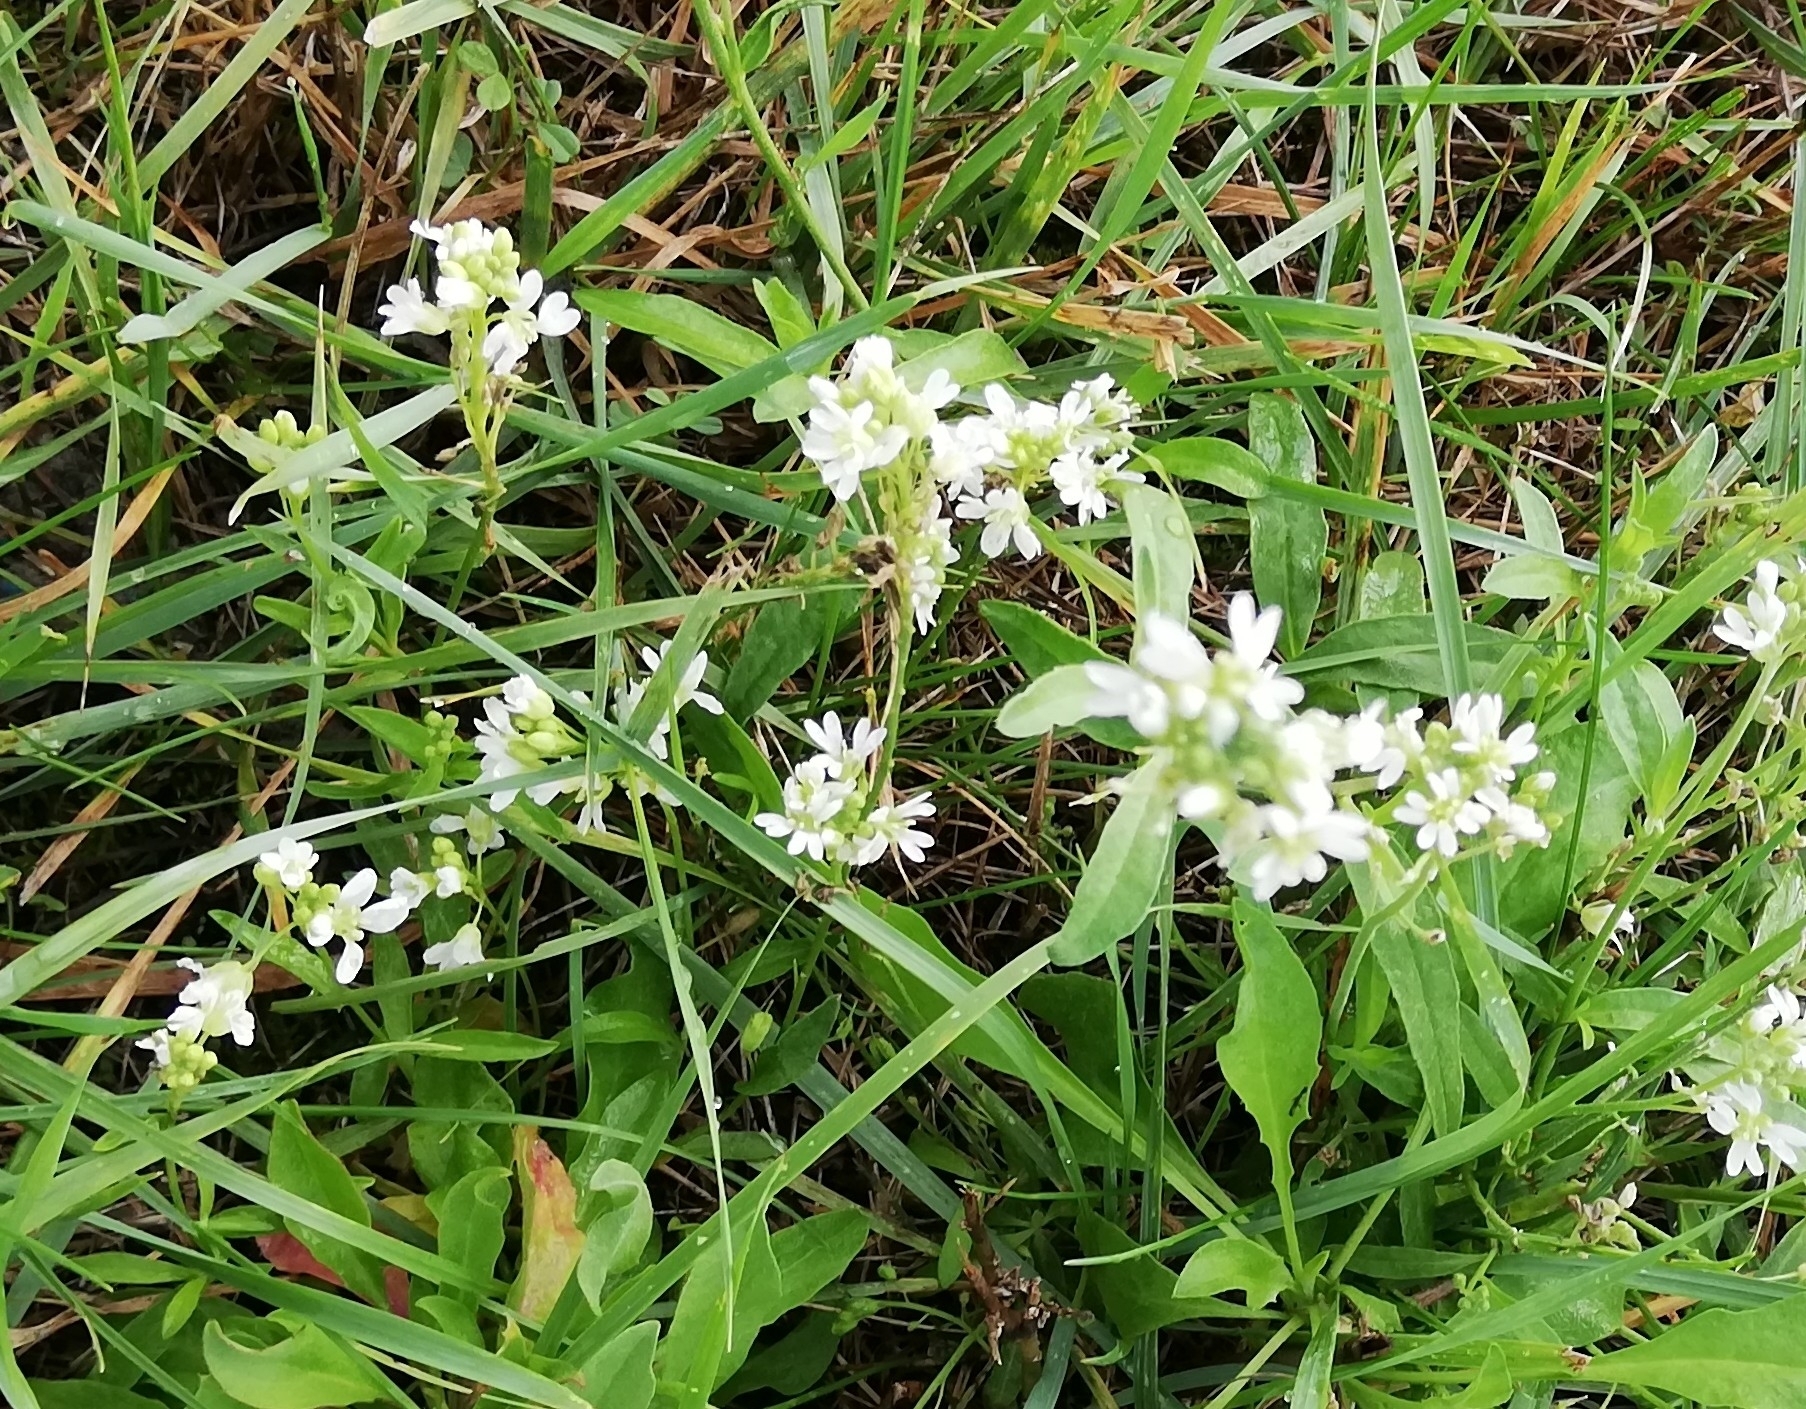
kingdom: Plantae
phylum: Tracheophyta
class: Magnoliopsida
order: Brassicales
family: Brassicaceae
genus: Berteroa
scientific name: Berteroa incana
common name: Hoary alison
